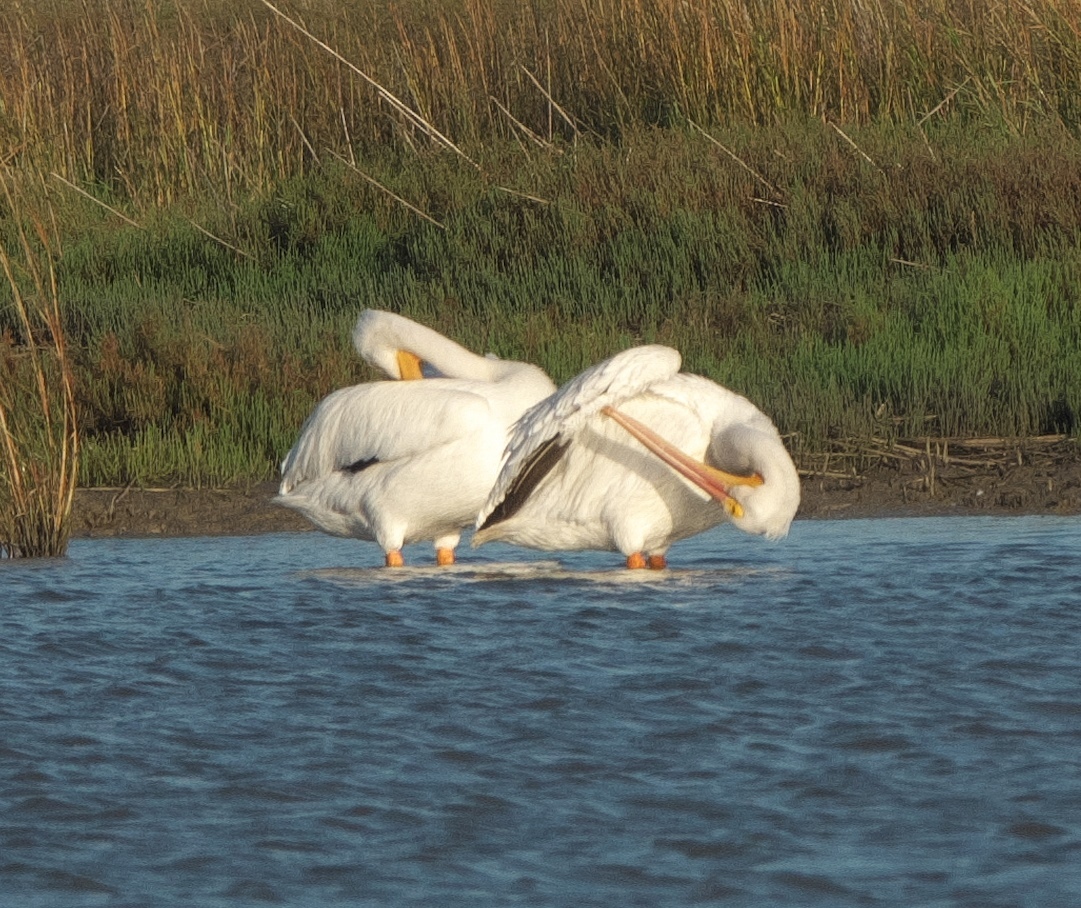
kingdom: Animalia
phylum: Chordata
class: Aves
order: Pelecaniformes
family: Pelecanidae
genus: Pelecanus
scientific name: Pelecanus erythrorhynchos
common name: American white pelican
